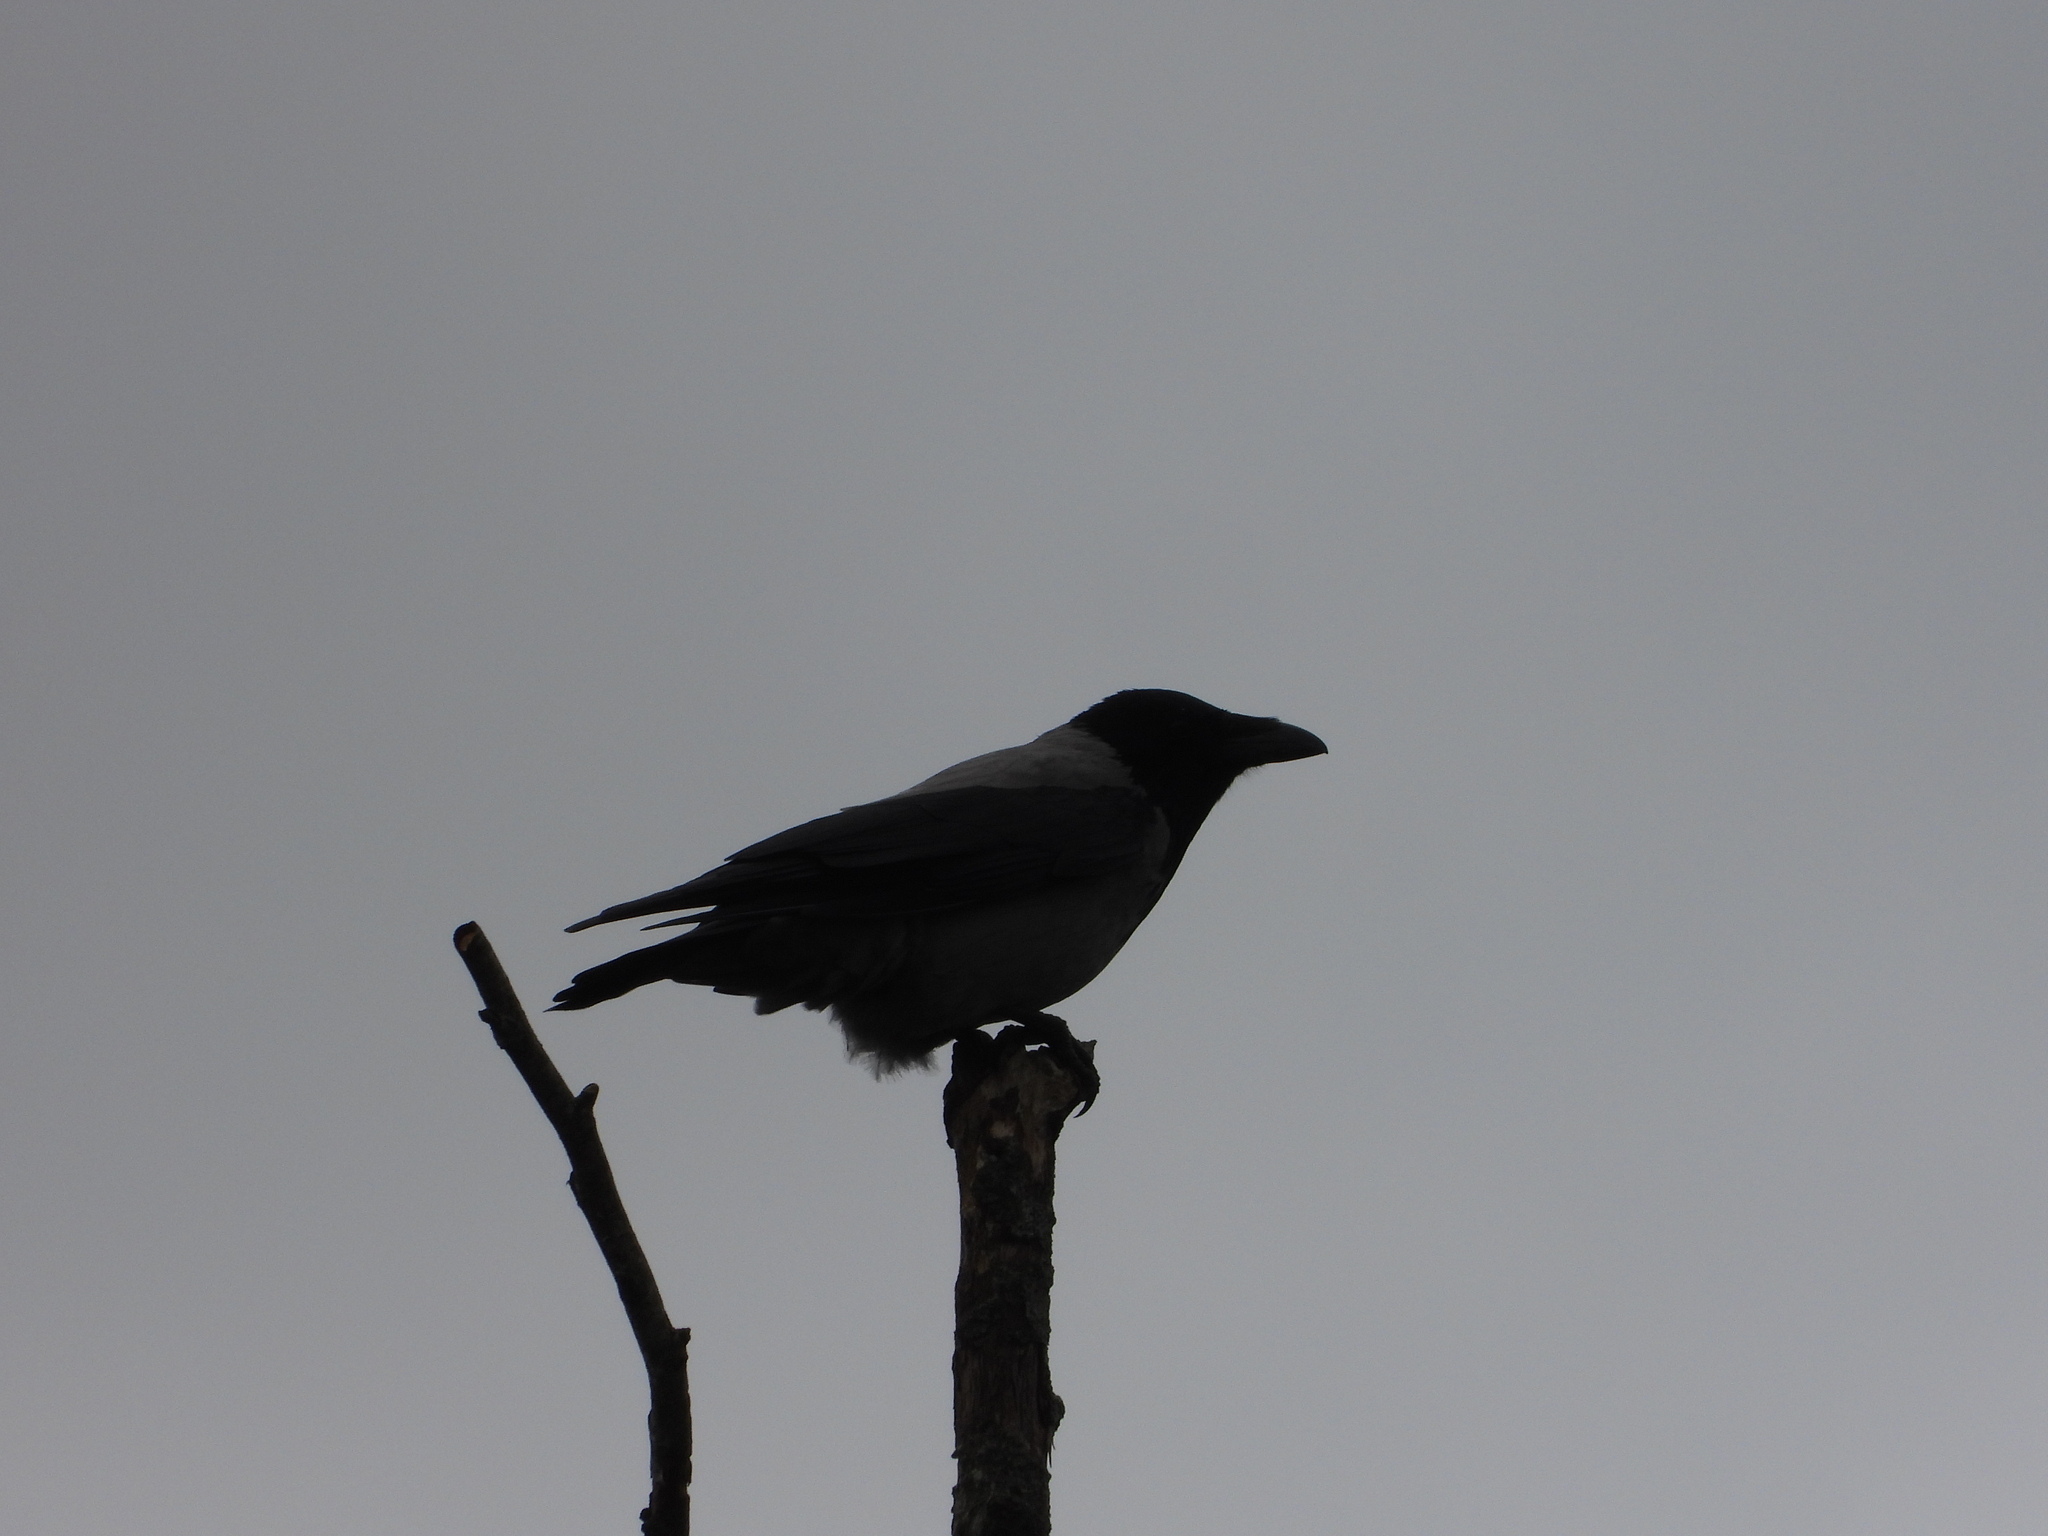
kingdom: Animalia
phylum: Chordata
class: Aves
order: Passeriformes
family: Corvidae
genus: Corvus
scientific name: Corvus cornix
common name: Hooded crow
